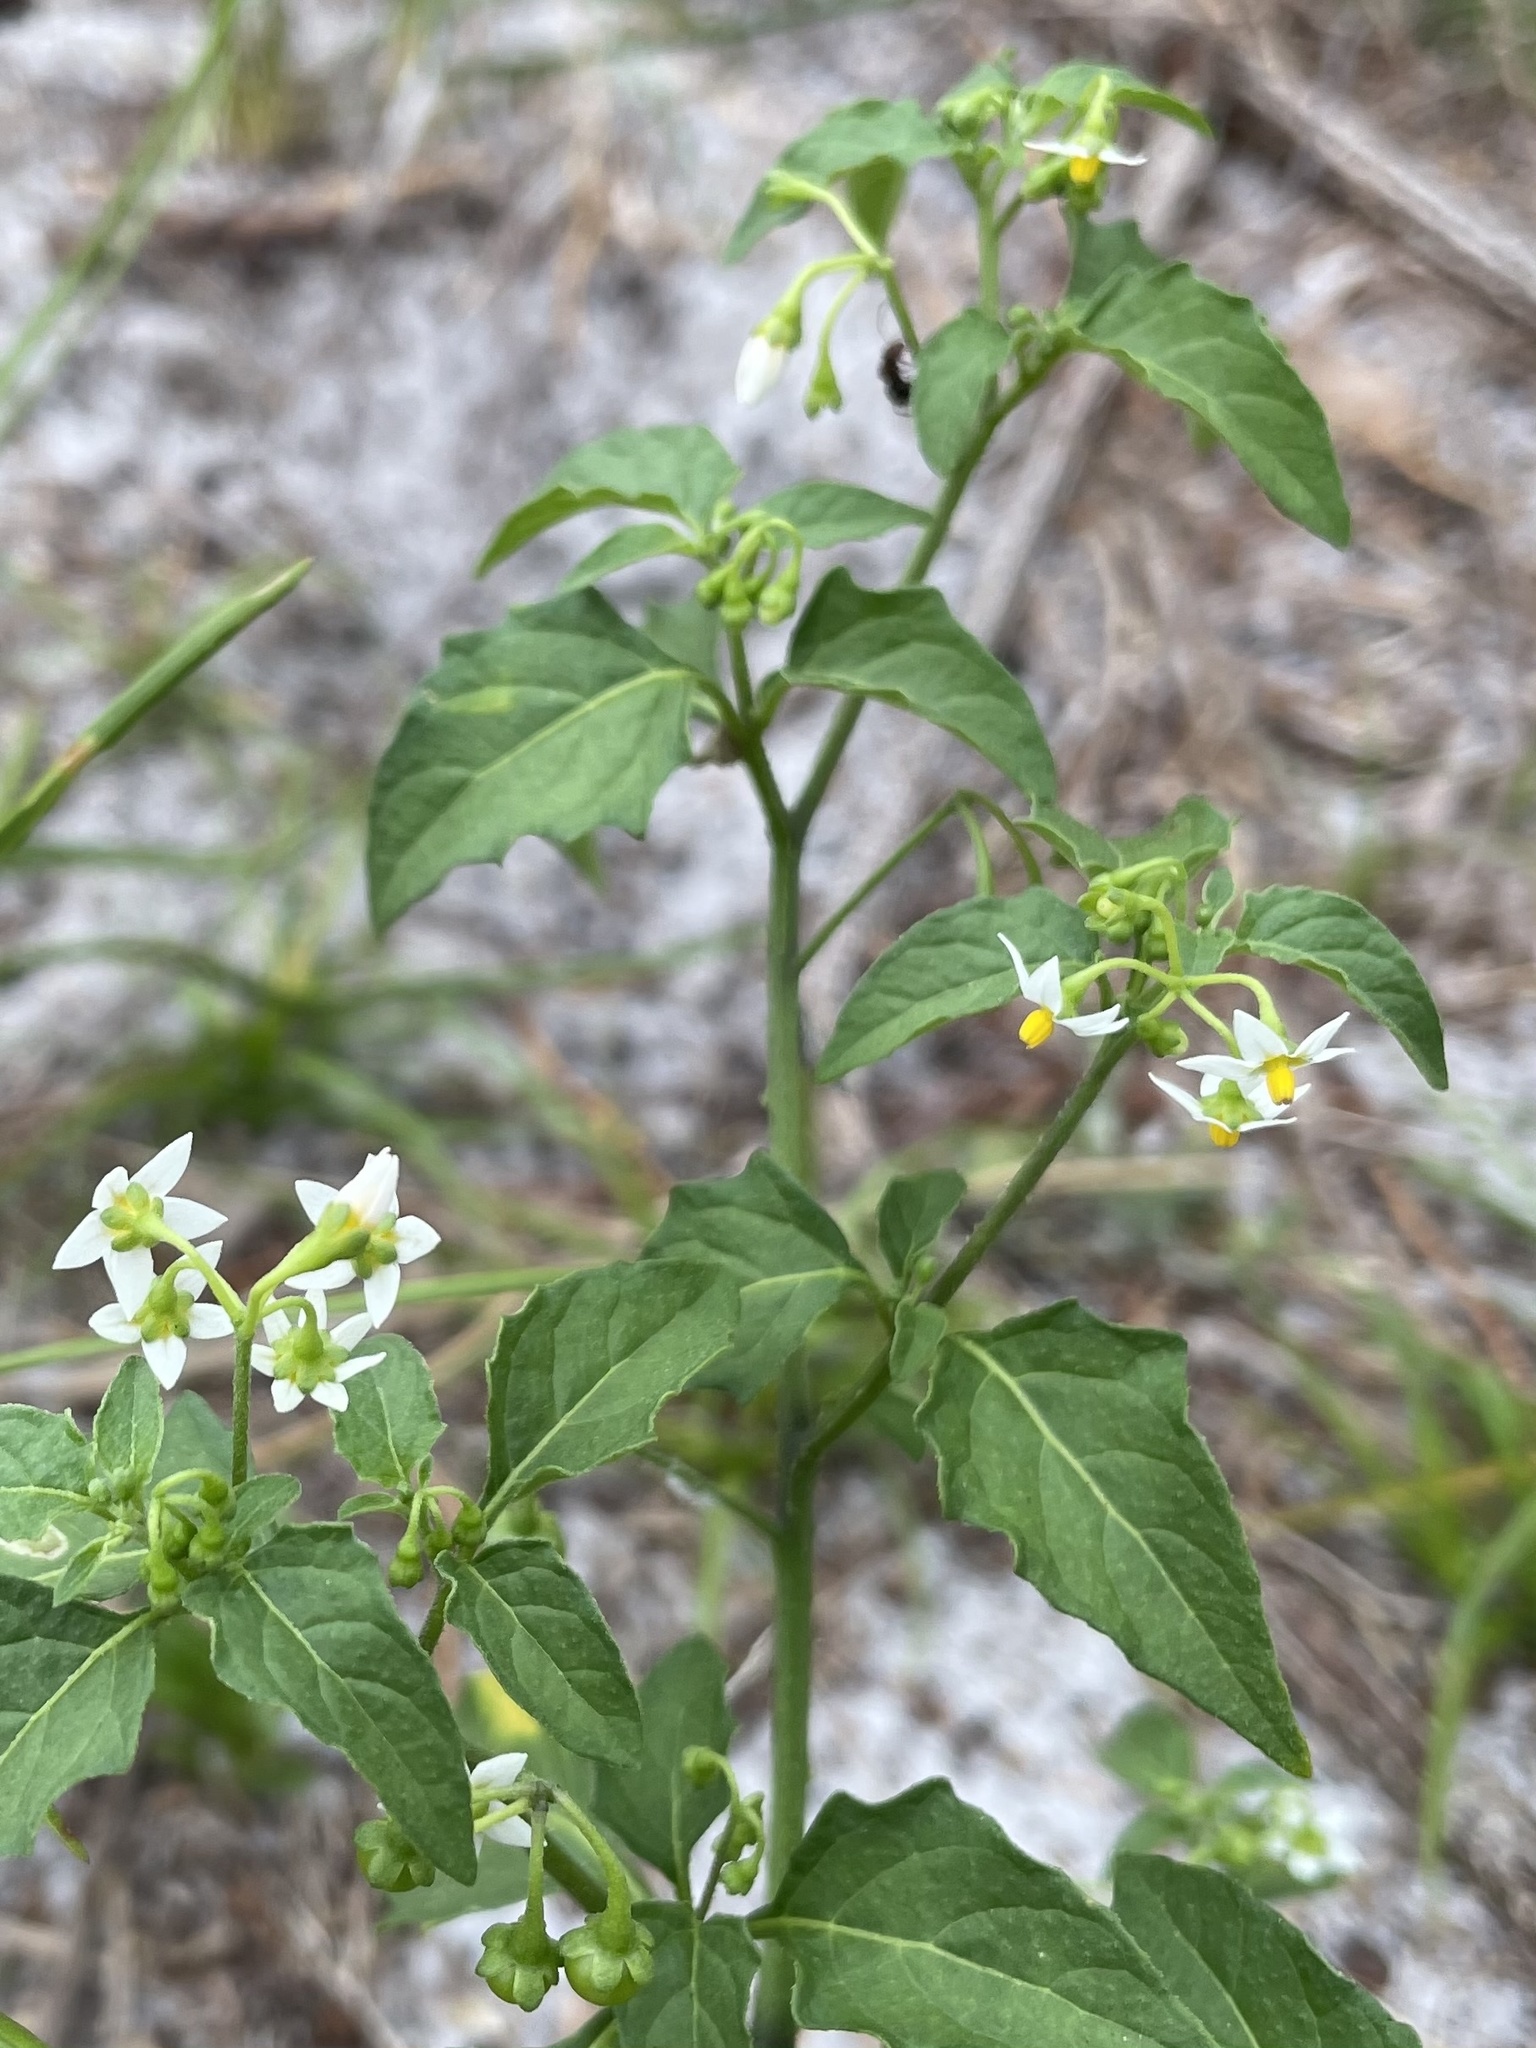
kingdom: Plantae
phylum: Tracheophyta
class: Magnoliopsida
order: Solanales
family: Solanaceae
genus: Solanum
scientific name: Solanum americanum
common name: American black nightshade
